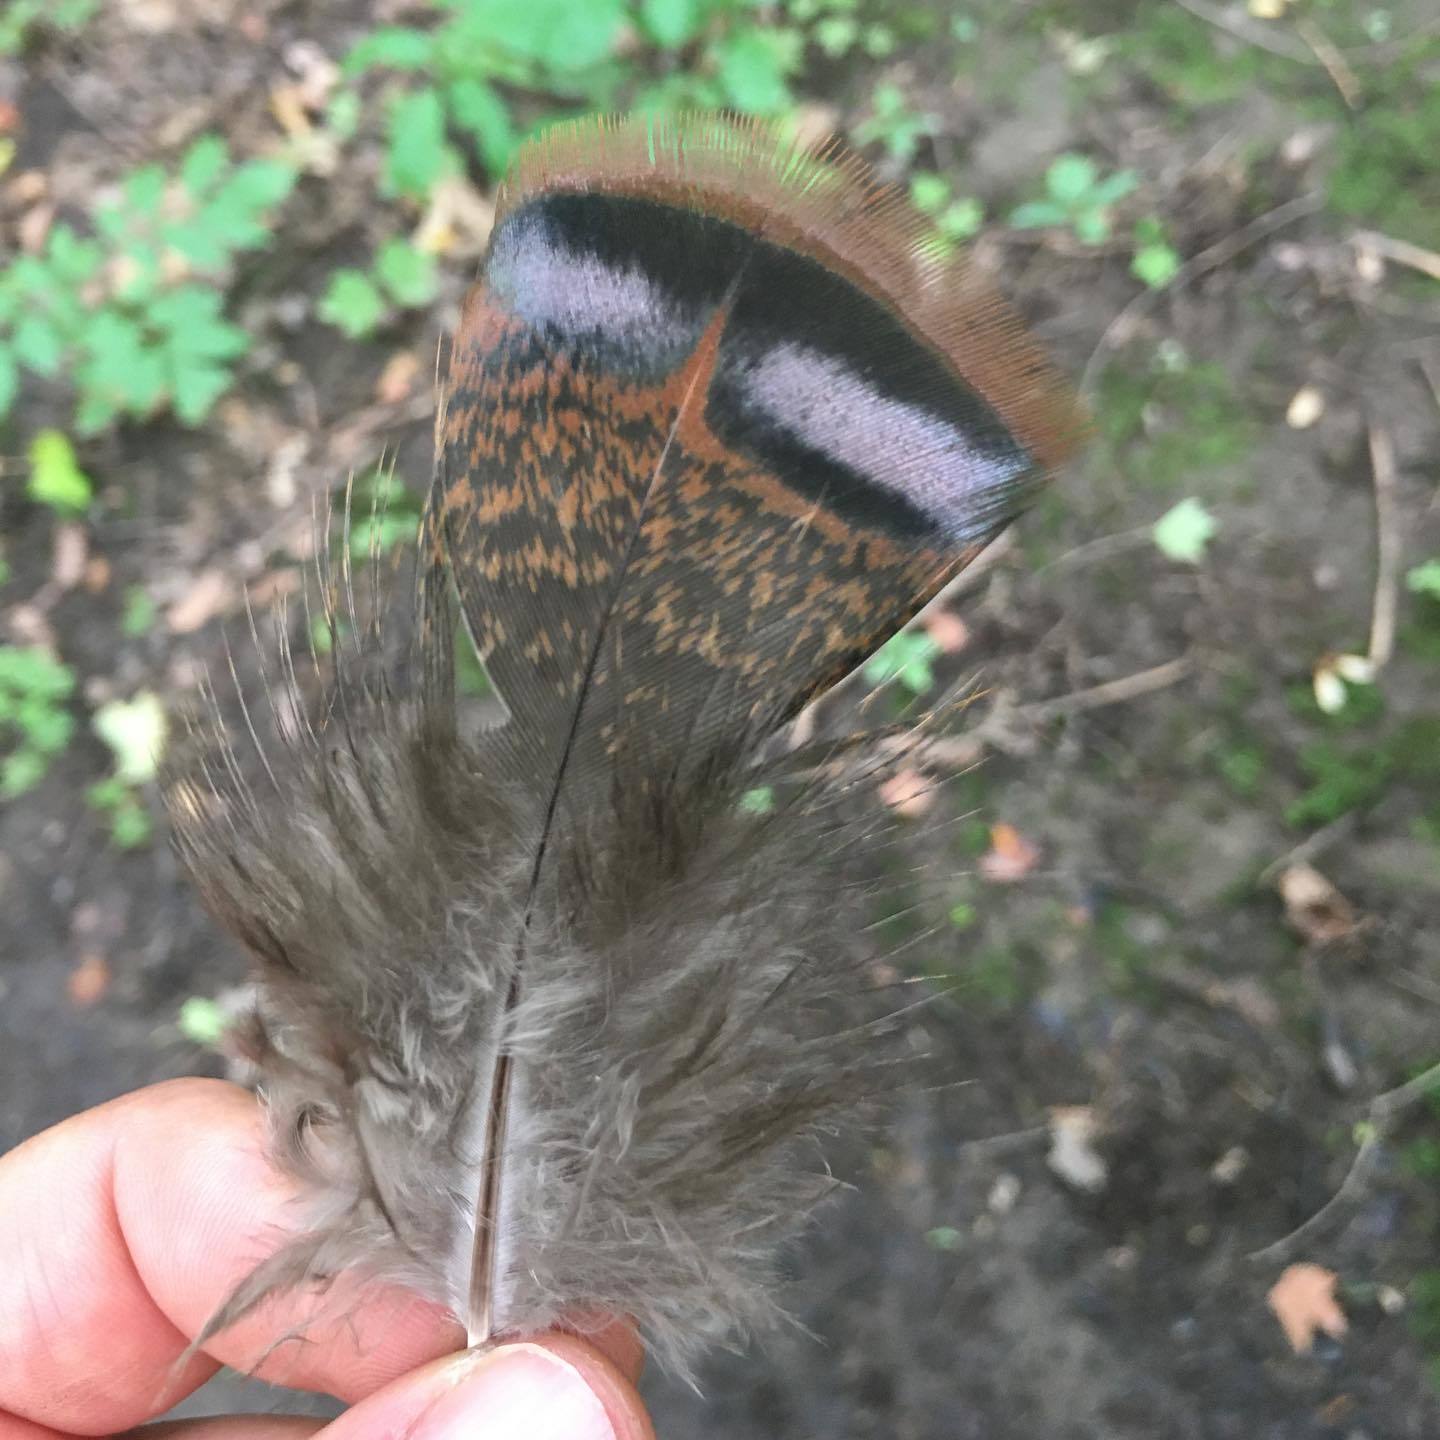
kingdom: Animalia
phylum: Chordata
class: Aves
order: Galliformes
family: Phasianidae
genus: Meleagris
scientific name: Meleagris gallopavo
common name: Wild turkey
